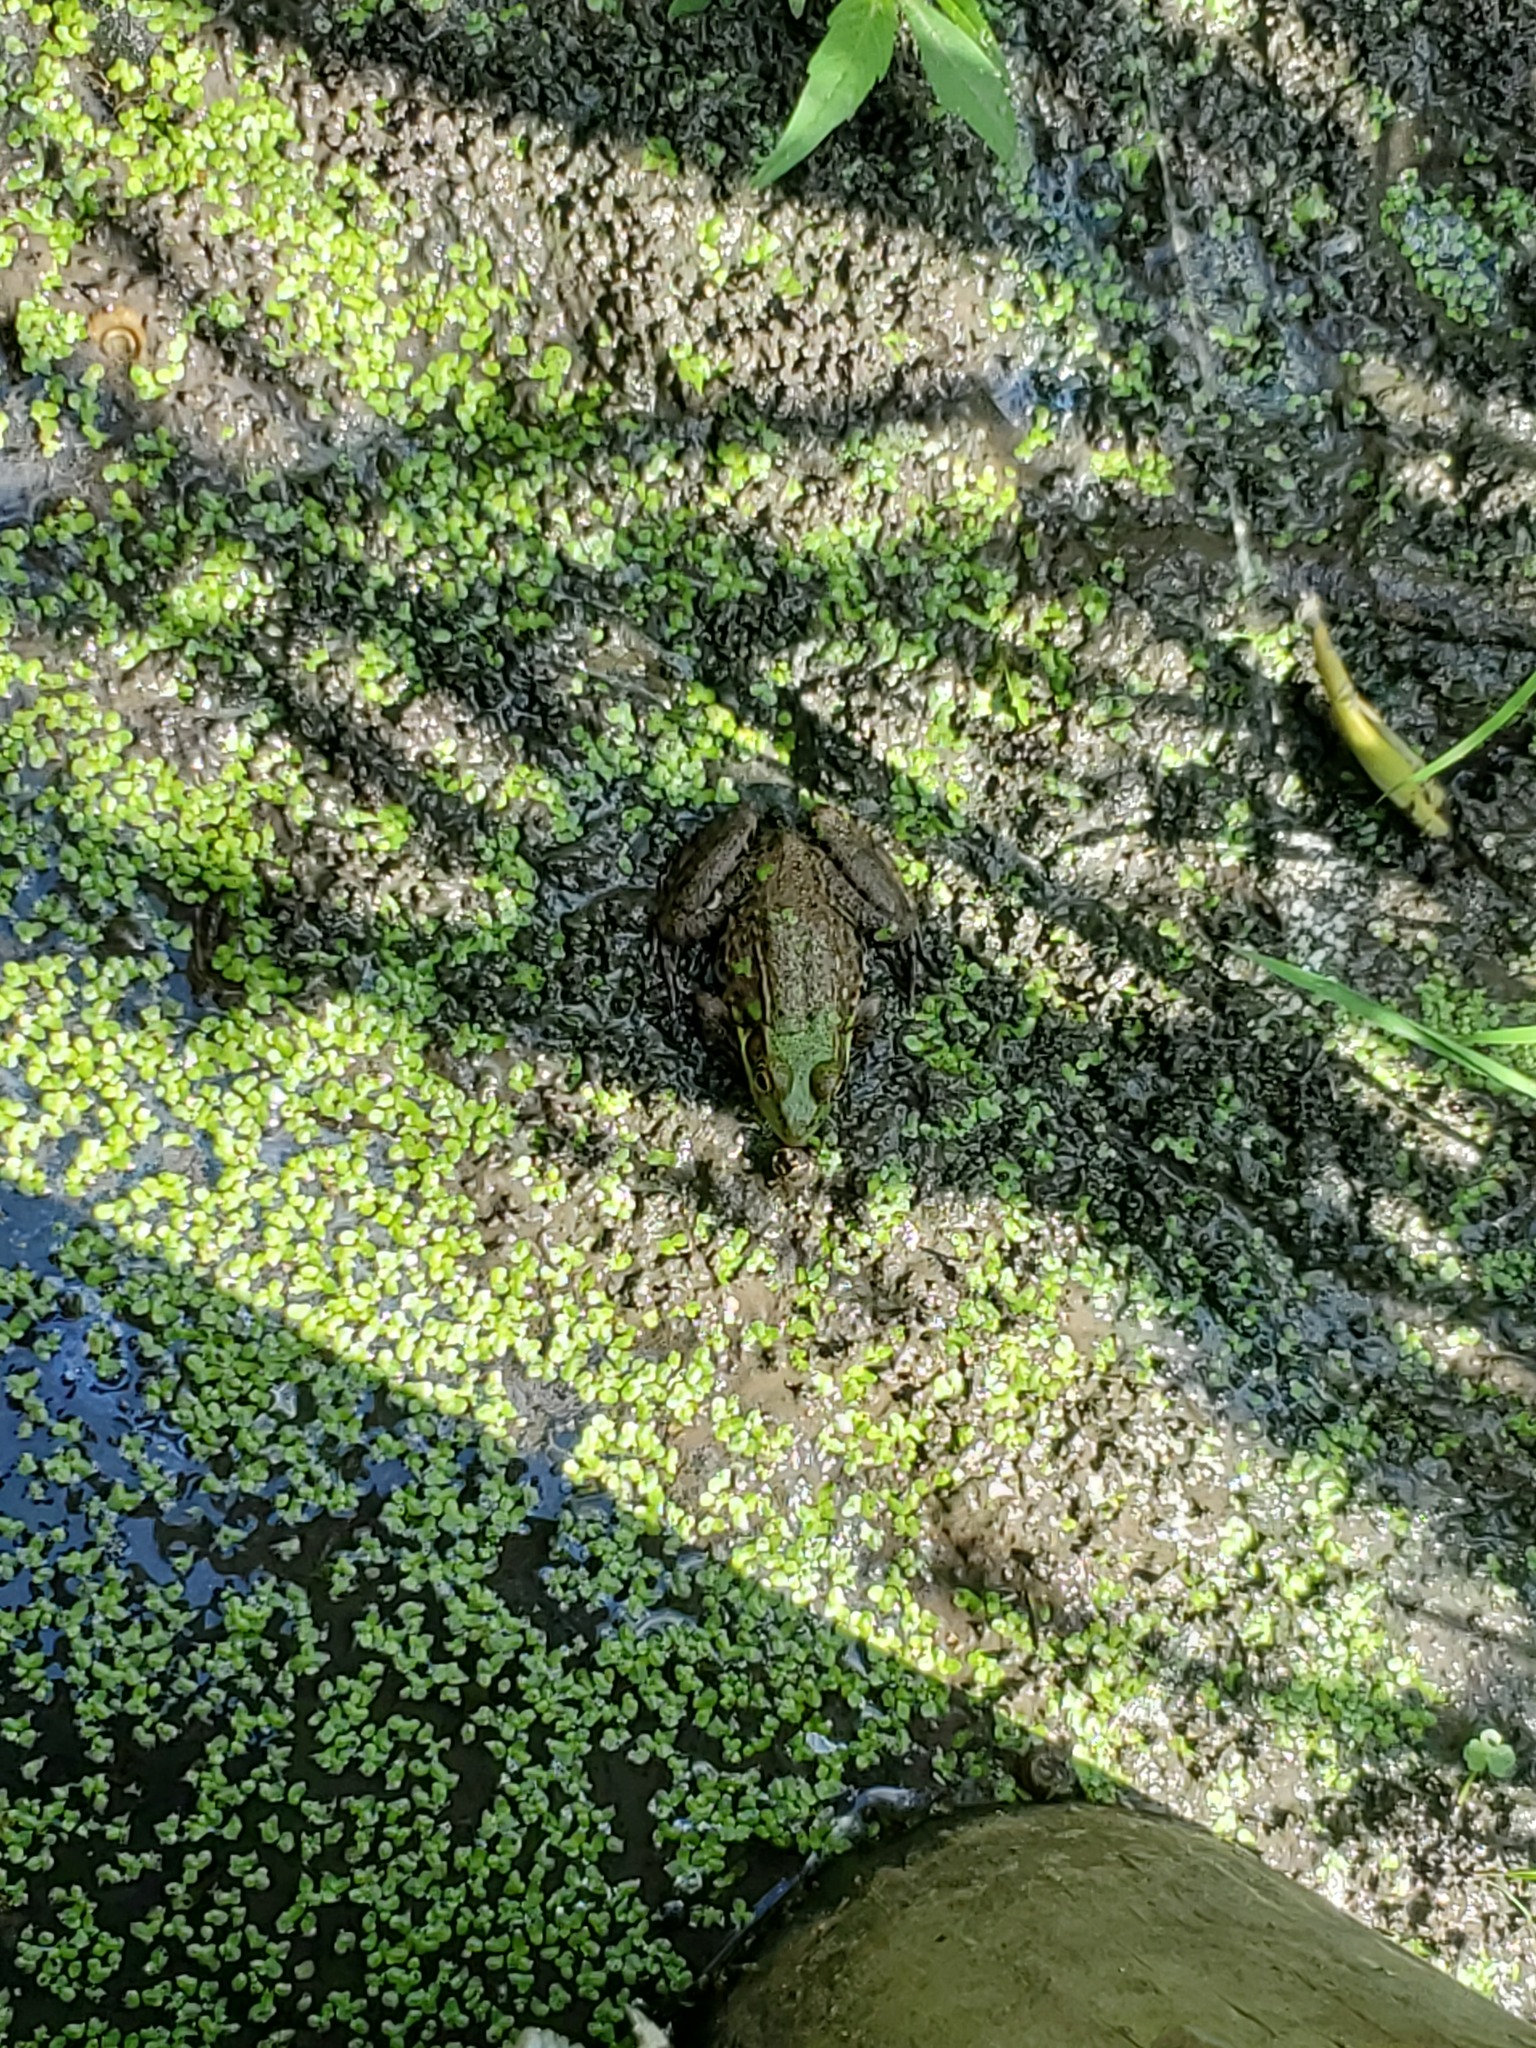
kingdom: Animalia
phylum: Chordata
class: Amphibia
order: Anura
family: Ranidae
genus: Lithobates
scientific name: Lithobates clamitans
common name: Green frog
